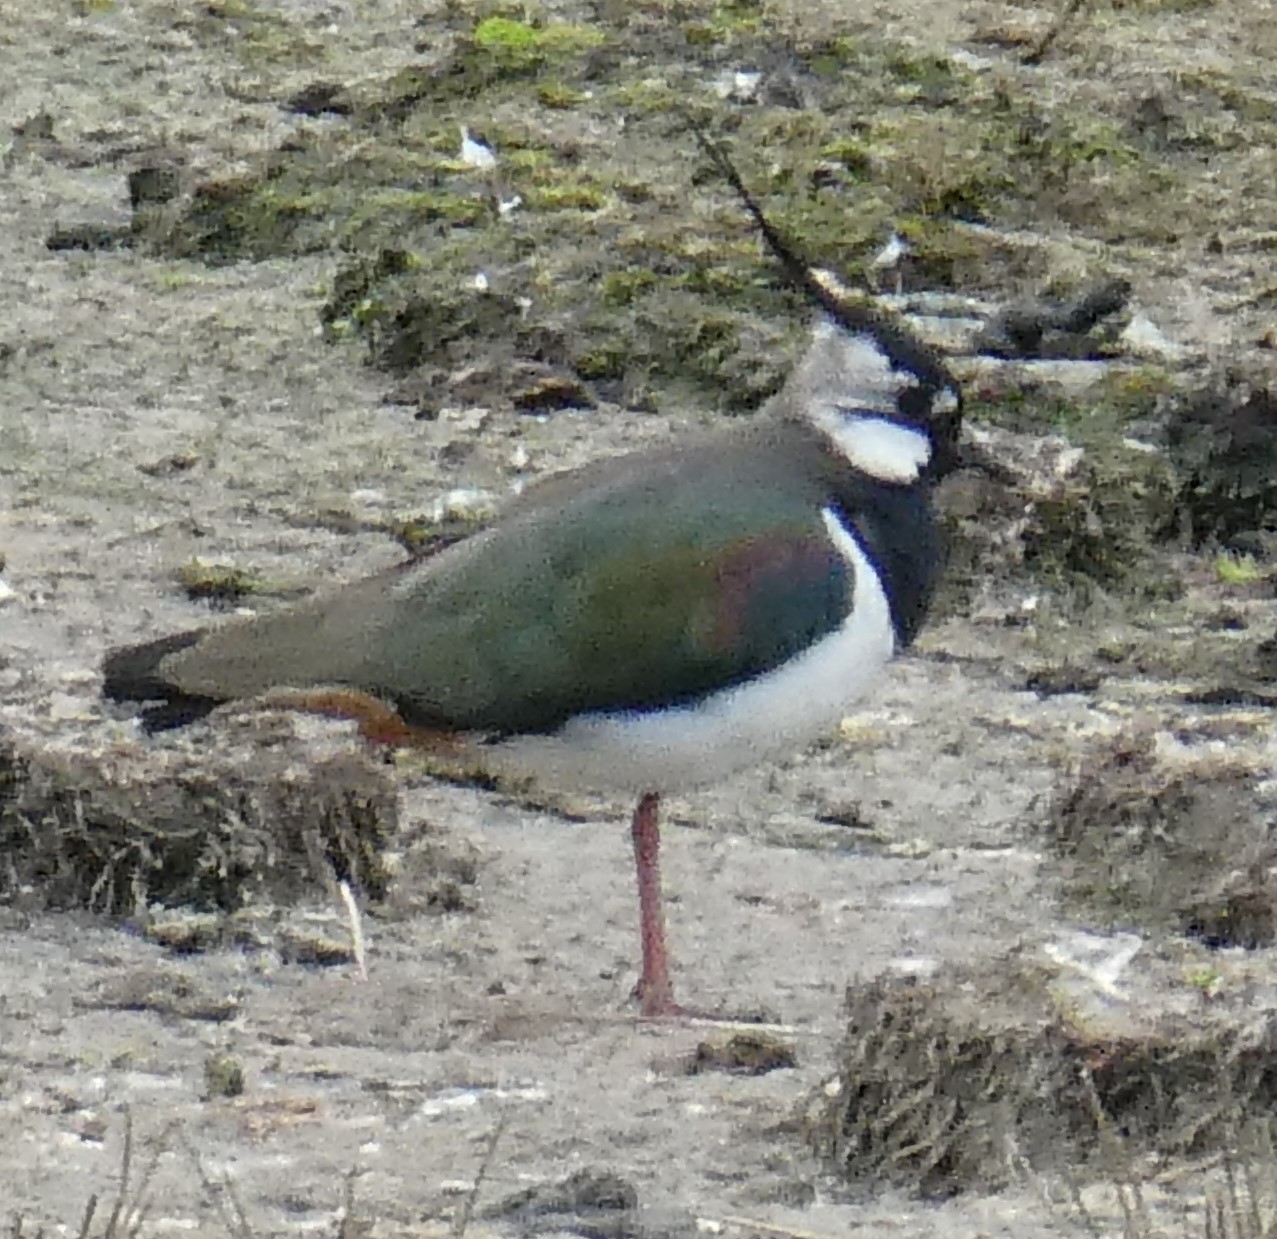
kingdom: Animalia
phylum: Chordata
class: Aves
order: Charadriiformes
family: Charadriidae
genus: Vanellus
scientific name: Vanellus vanellus
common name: Northern lapwing
